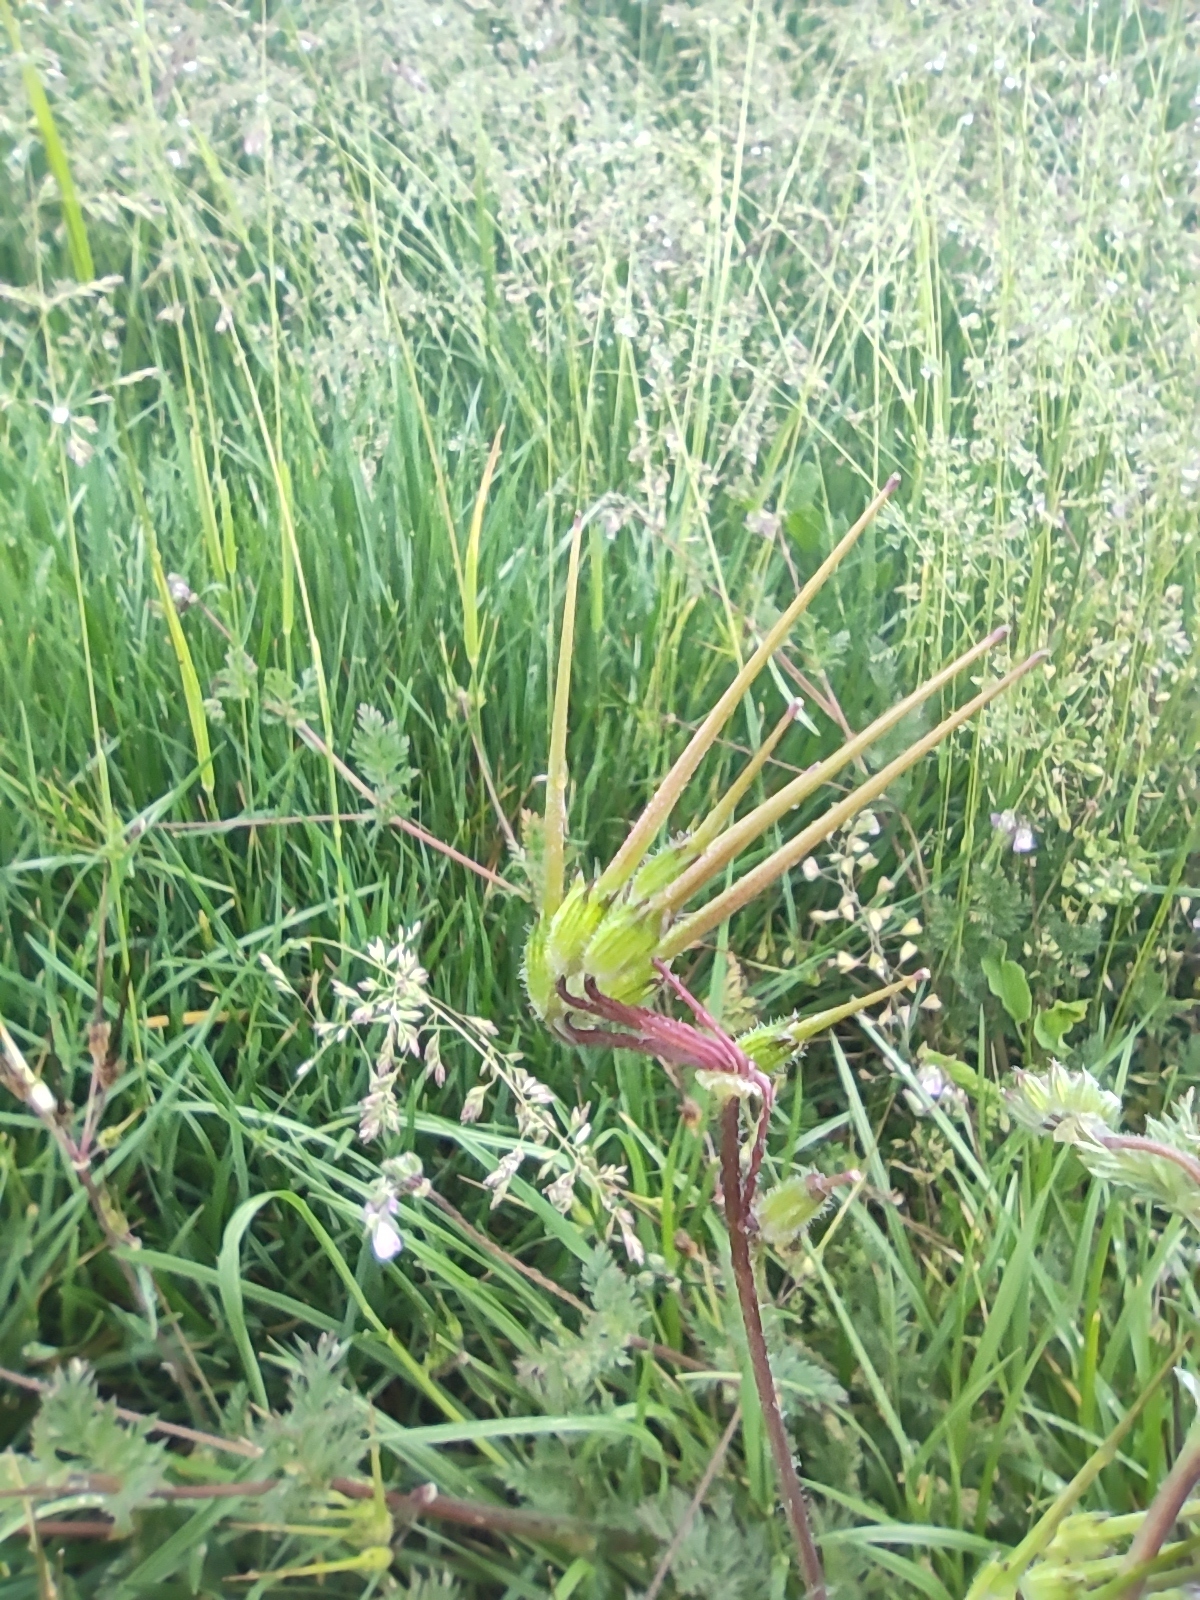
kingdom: Plantae
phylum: Tracheophyta
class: Magnoliopsida
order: Geraniales
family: Geraniaceae
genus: Erodium
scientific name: Erodium cicutarium
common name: Common stork's-bill
